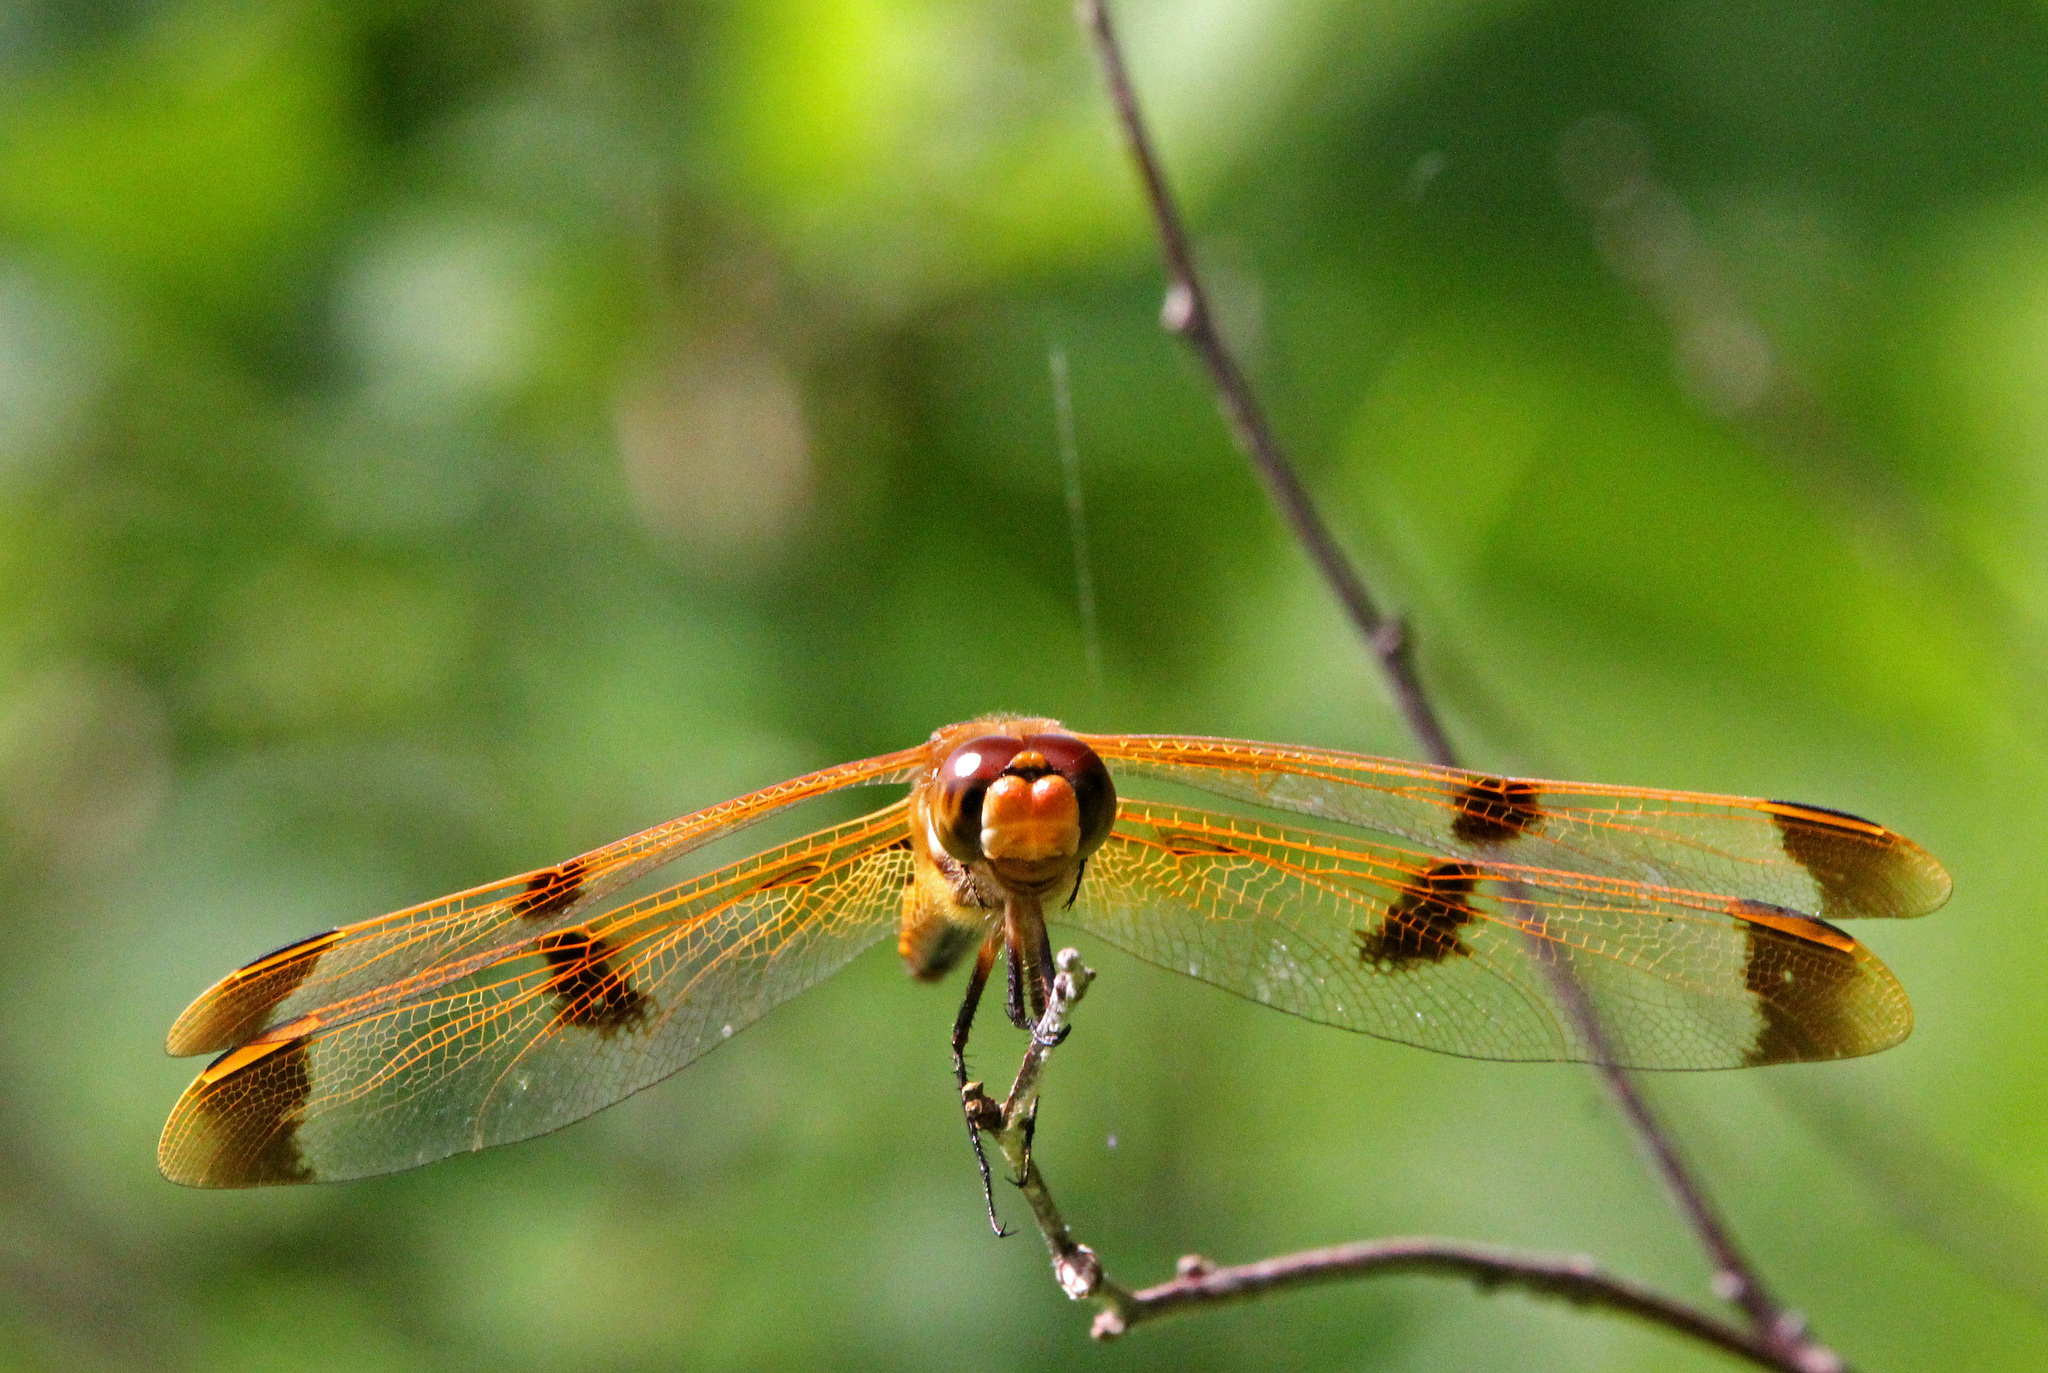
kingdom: Animalia
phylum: Arthropoda
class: Insecta
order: Odonata
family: Libellulidae
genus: Libellula
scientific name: Libellula semifasciata
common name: Painted skimmer
